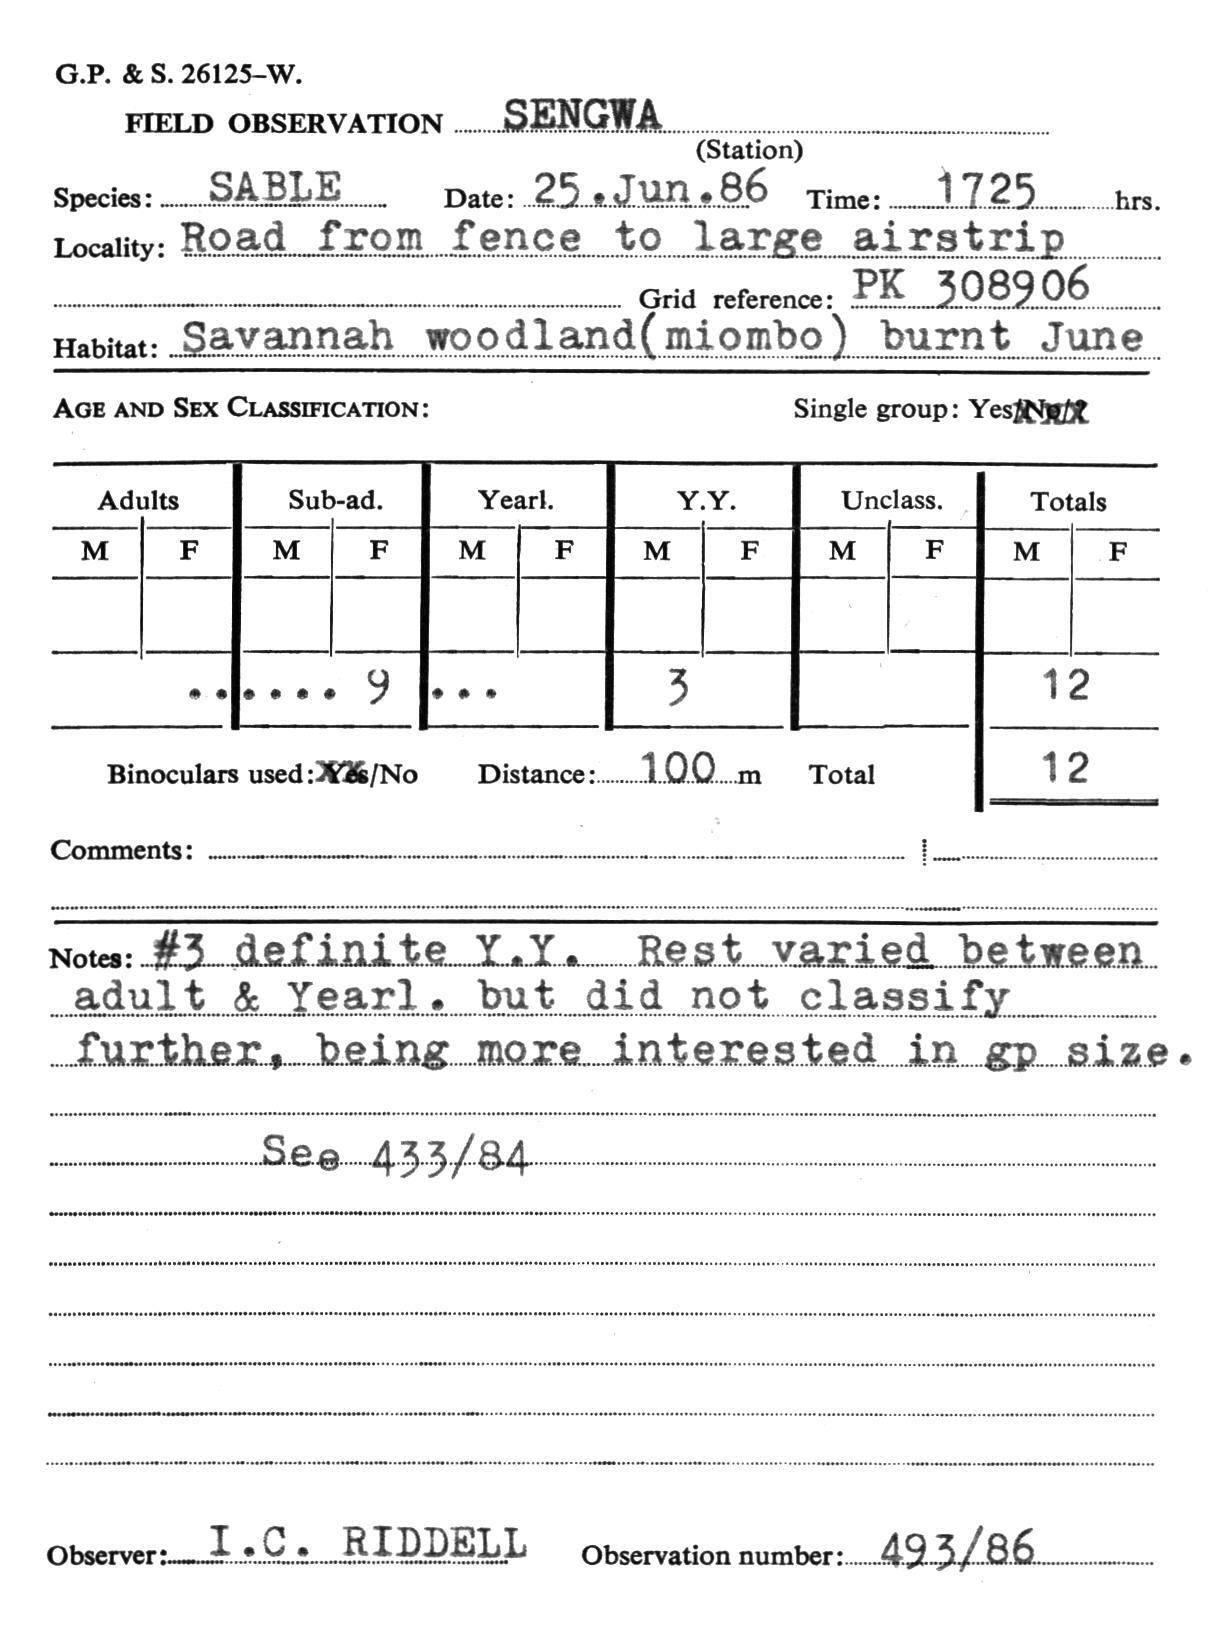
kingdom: Animalia
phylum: Chordata
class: Mammalia
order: Artiodactyla
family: Bovidae
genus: Hippotragus
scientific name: Hippotragus niger
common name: Sable antelope
